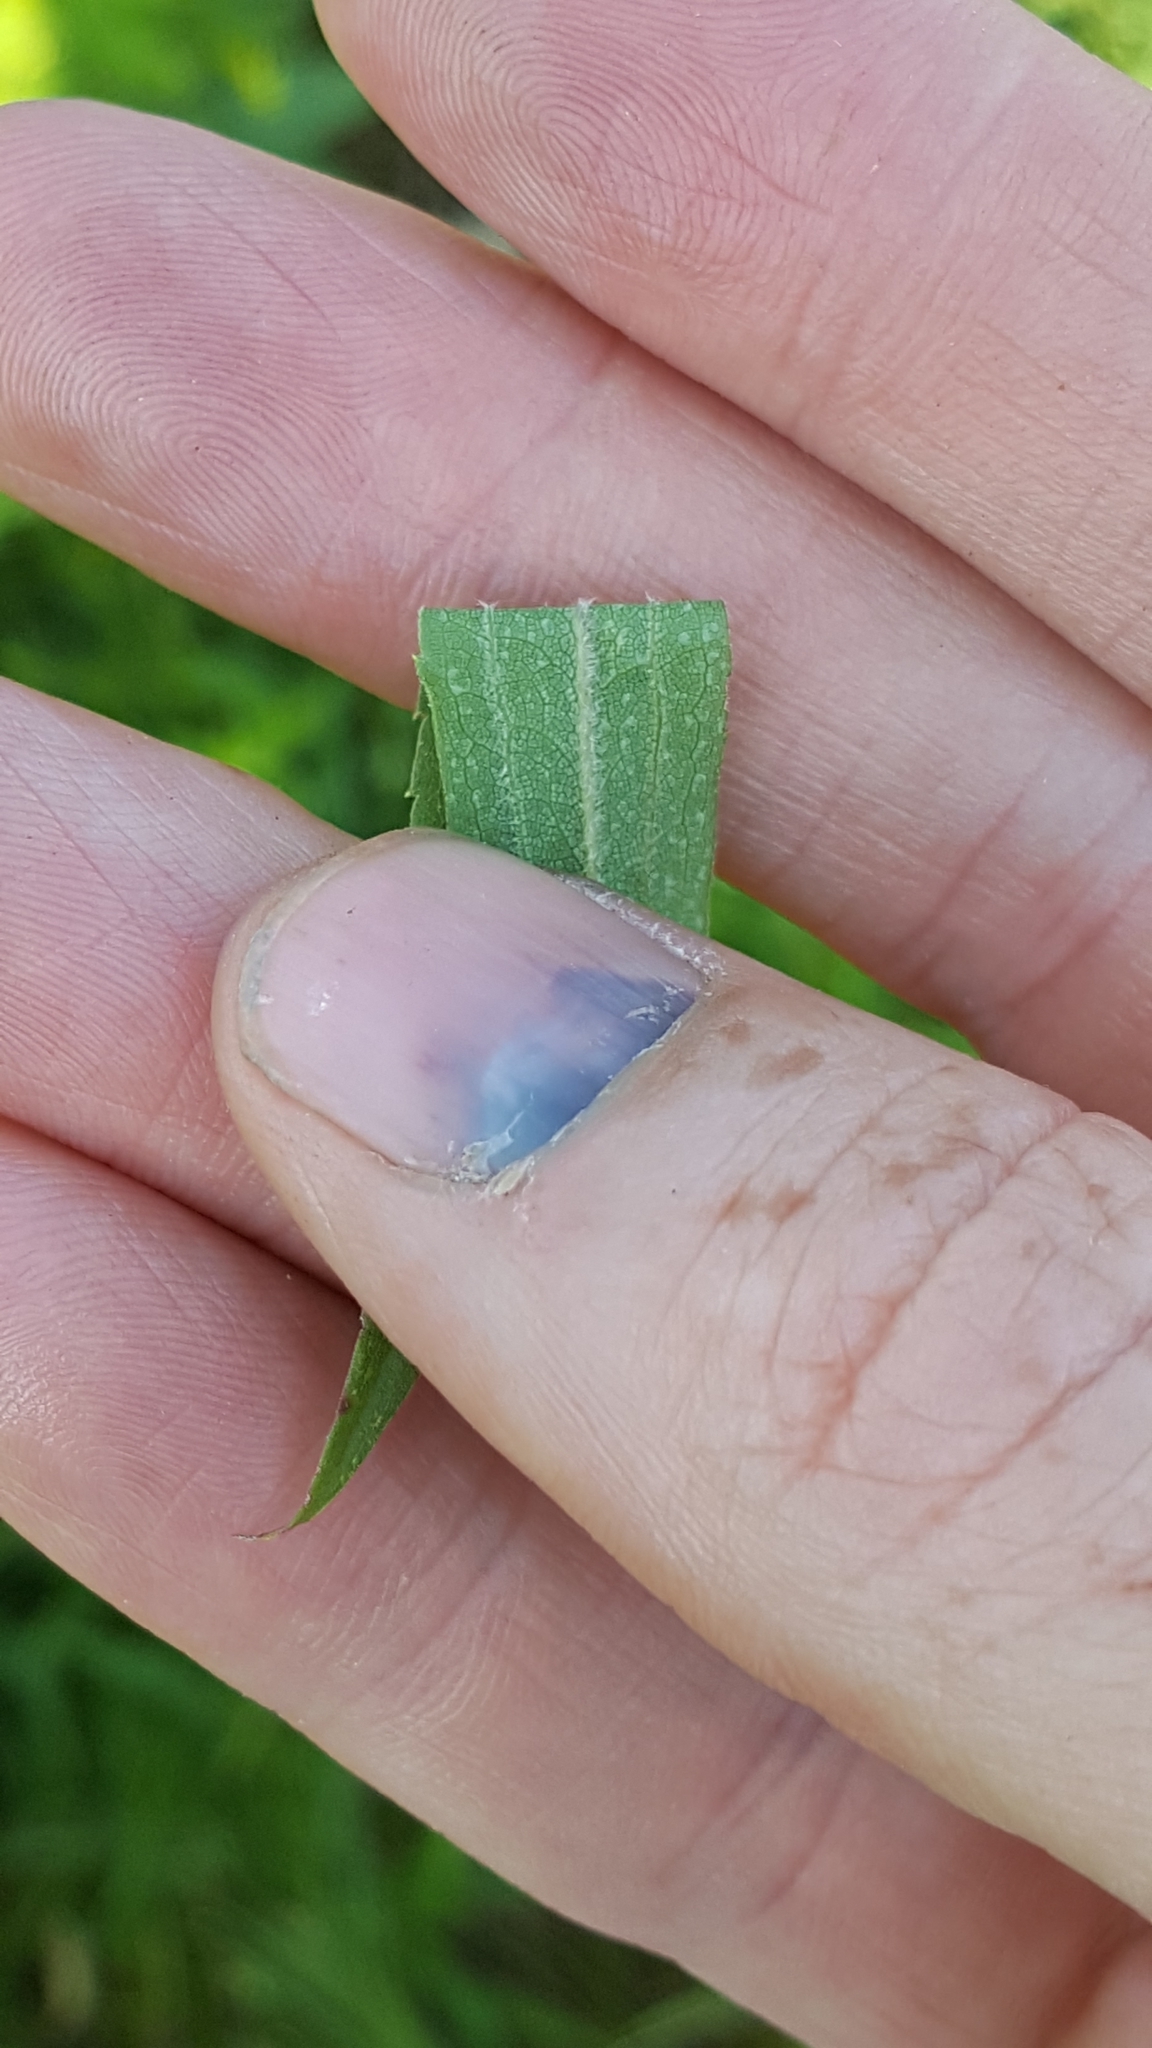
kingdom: Plantae
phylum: Tracheophyta
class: Magnoliopsida
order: Asterales
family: Asteraceae
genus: Solidago
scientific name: Solidago canadensis
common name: Canada goldenrod
